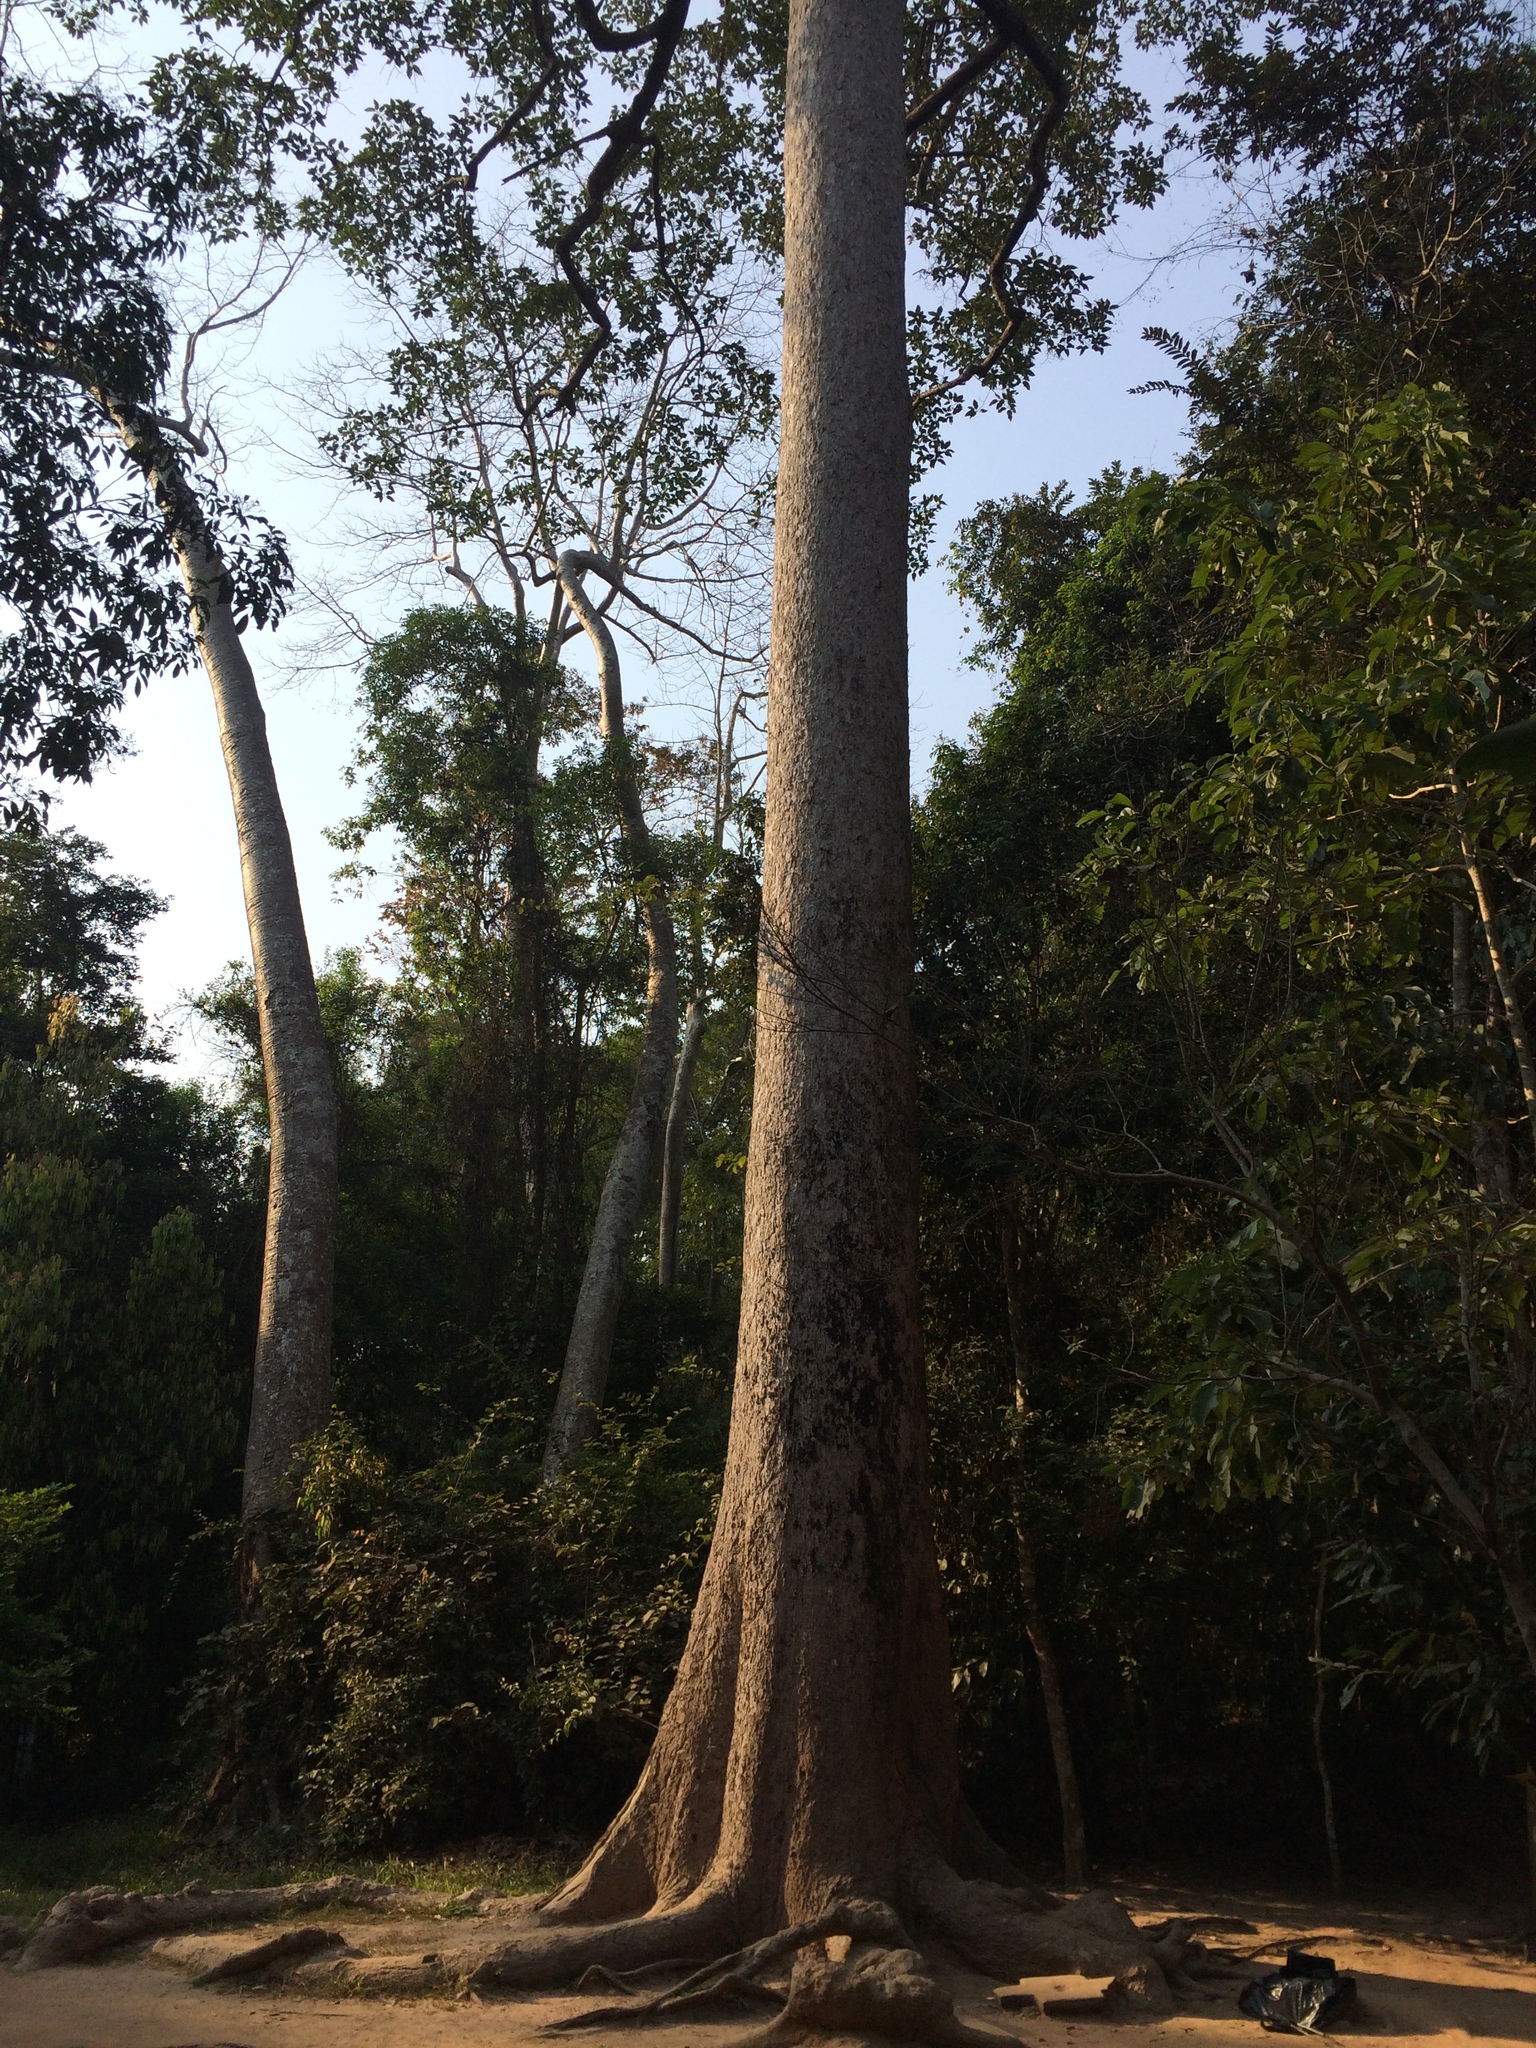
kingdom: Plantae
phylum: Tracheophyta
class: Magnoliopsida
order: Cucurbitales
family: Tetramelaceae
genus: Tetrameles
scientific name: Tetrameles nudiflora
